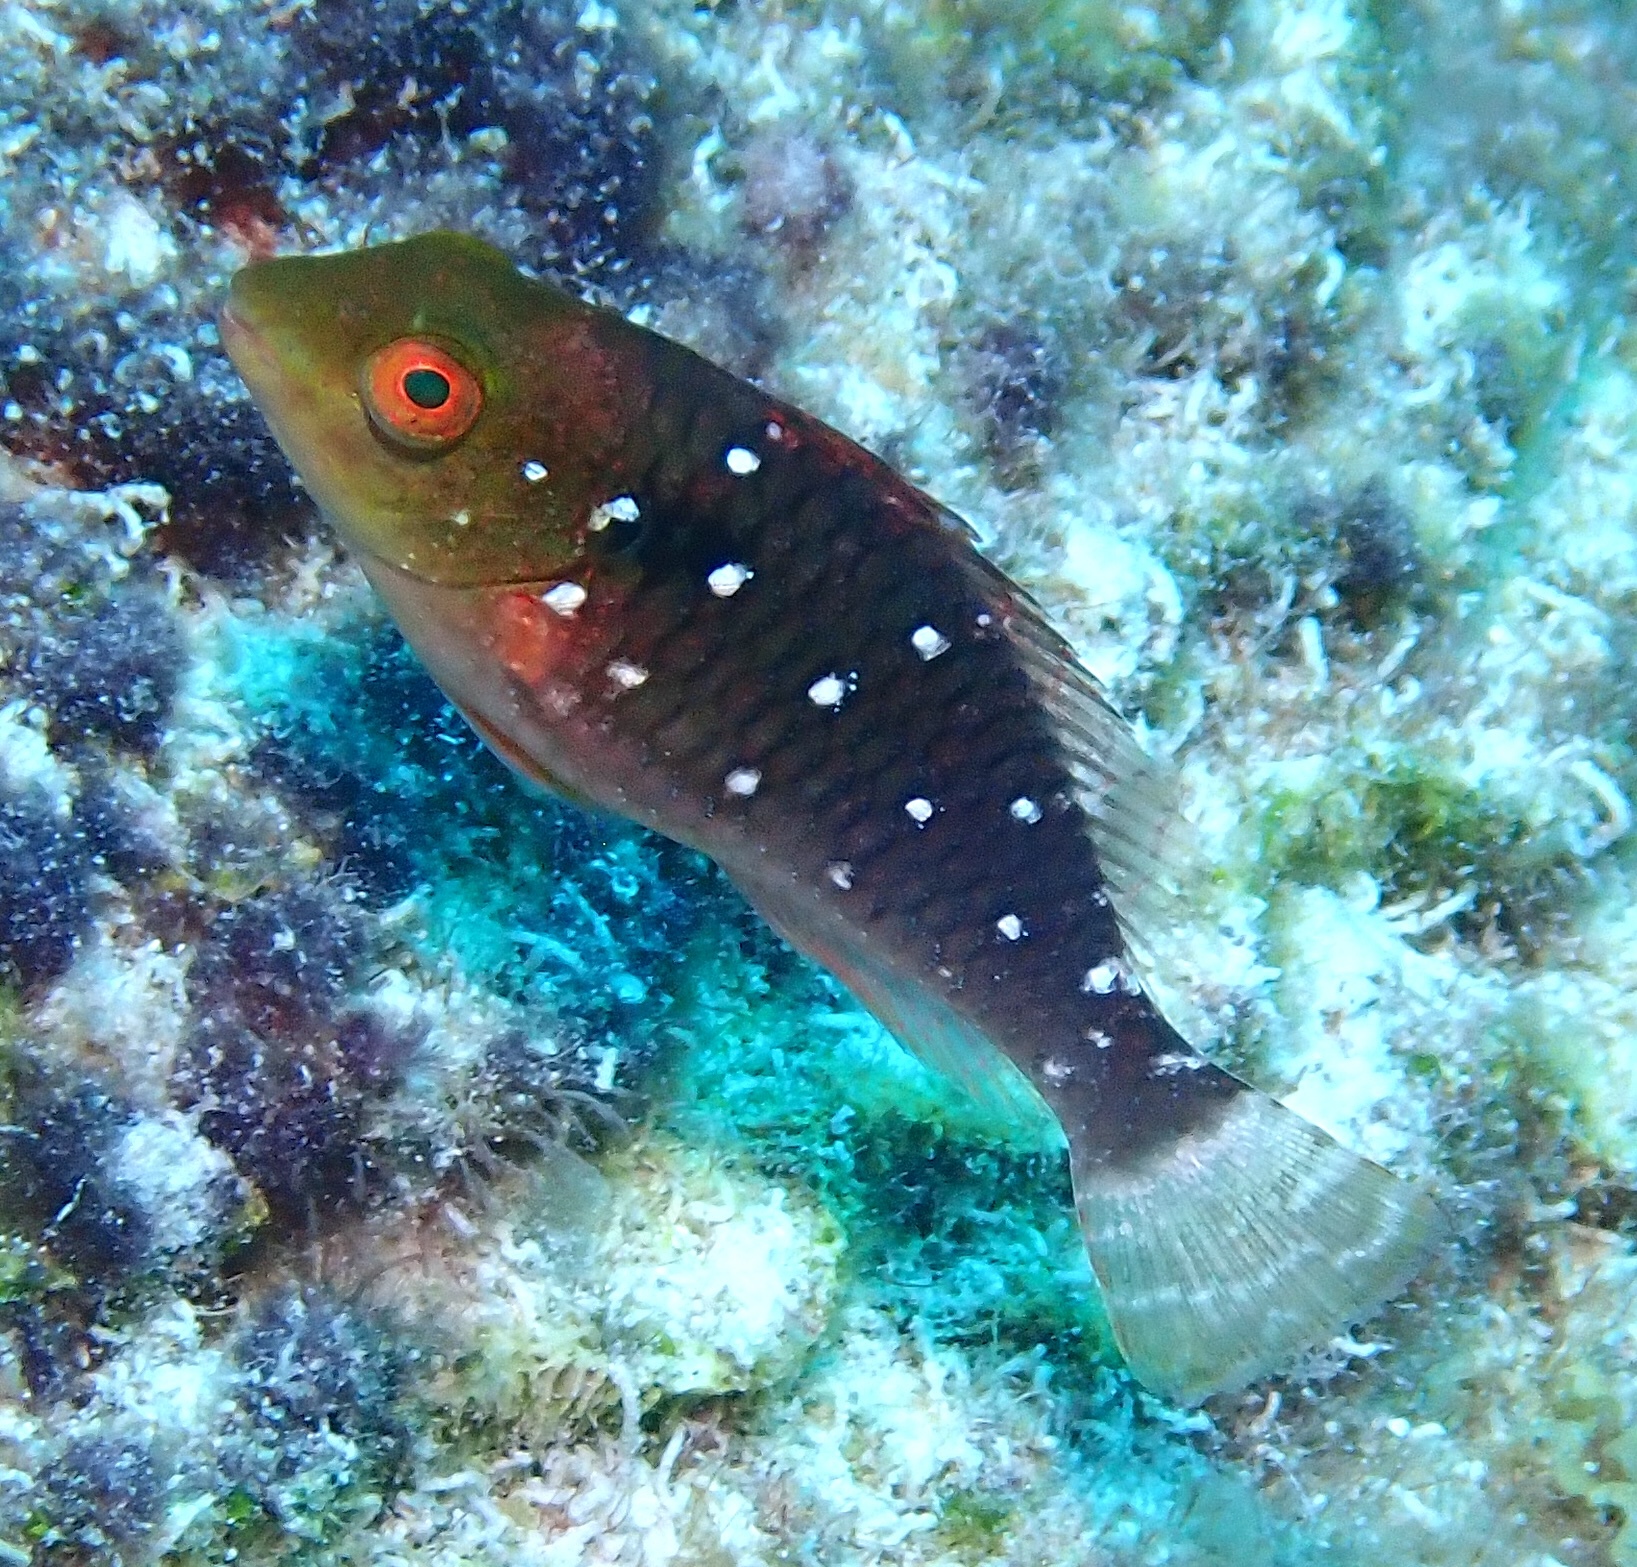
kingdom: Animalia
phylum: Chordata
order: Perciformes
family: Scaridae
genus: Sparisoma
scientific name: Sparisoma viride
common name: Stoplight parrotfish
